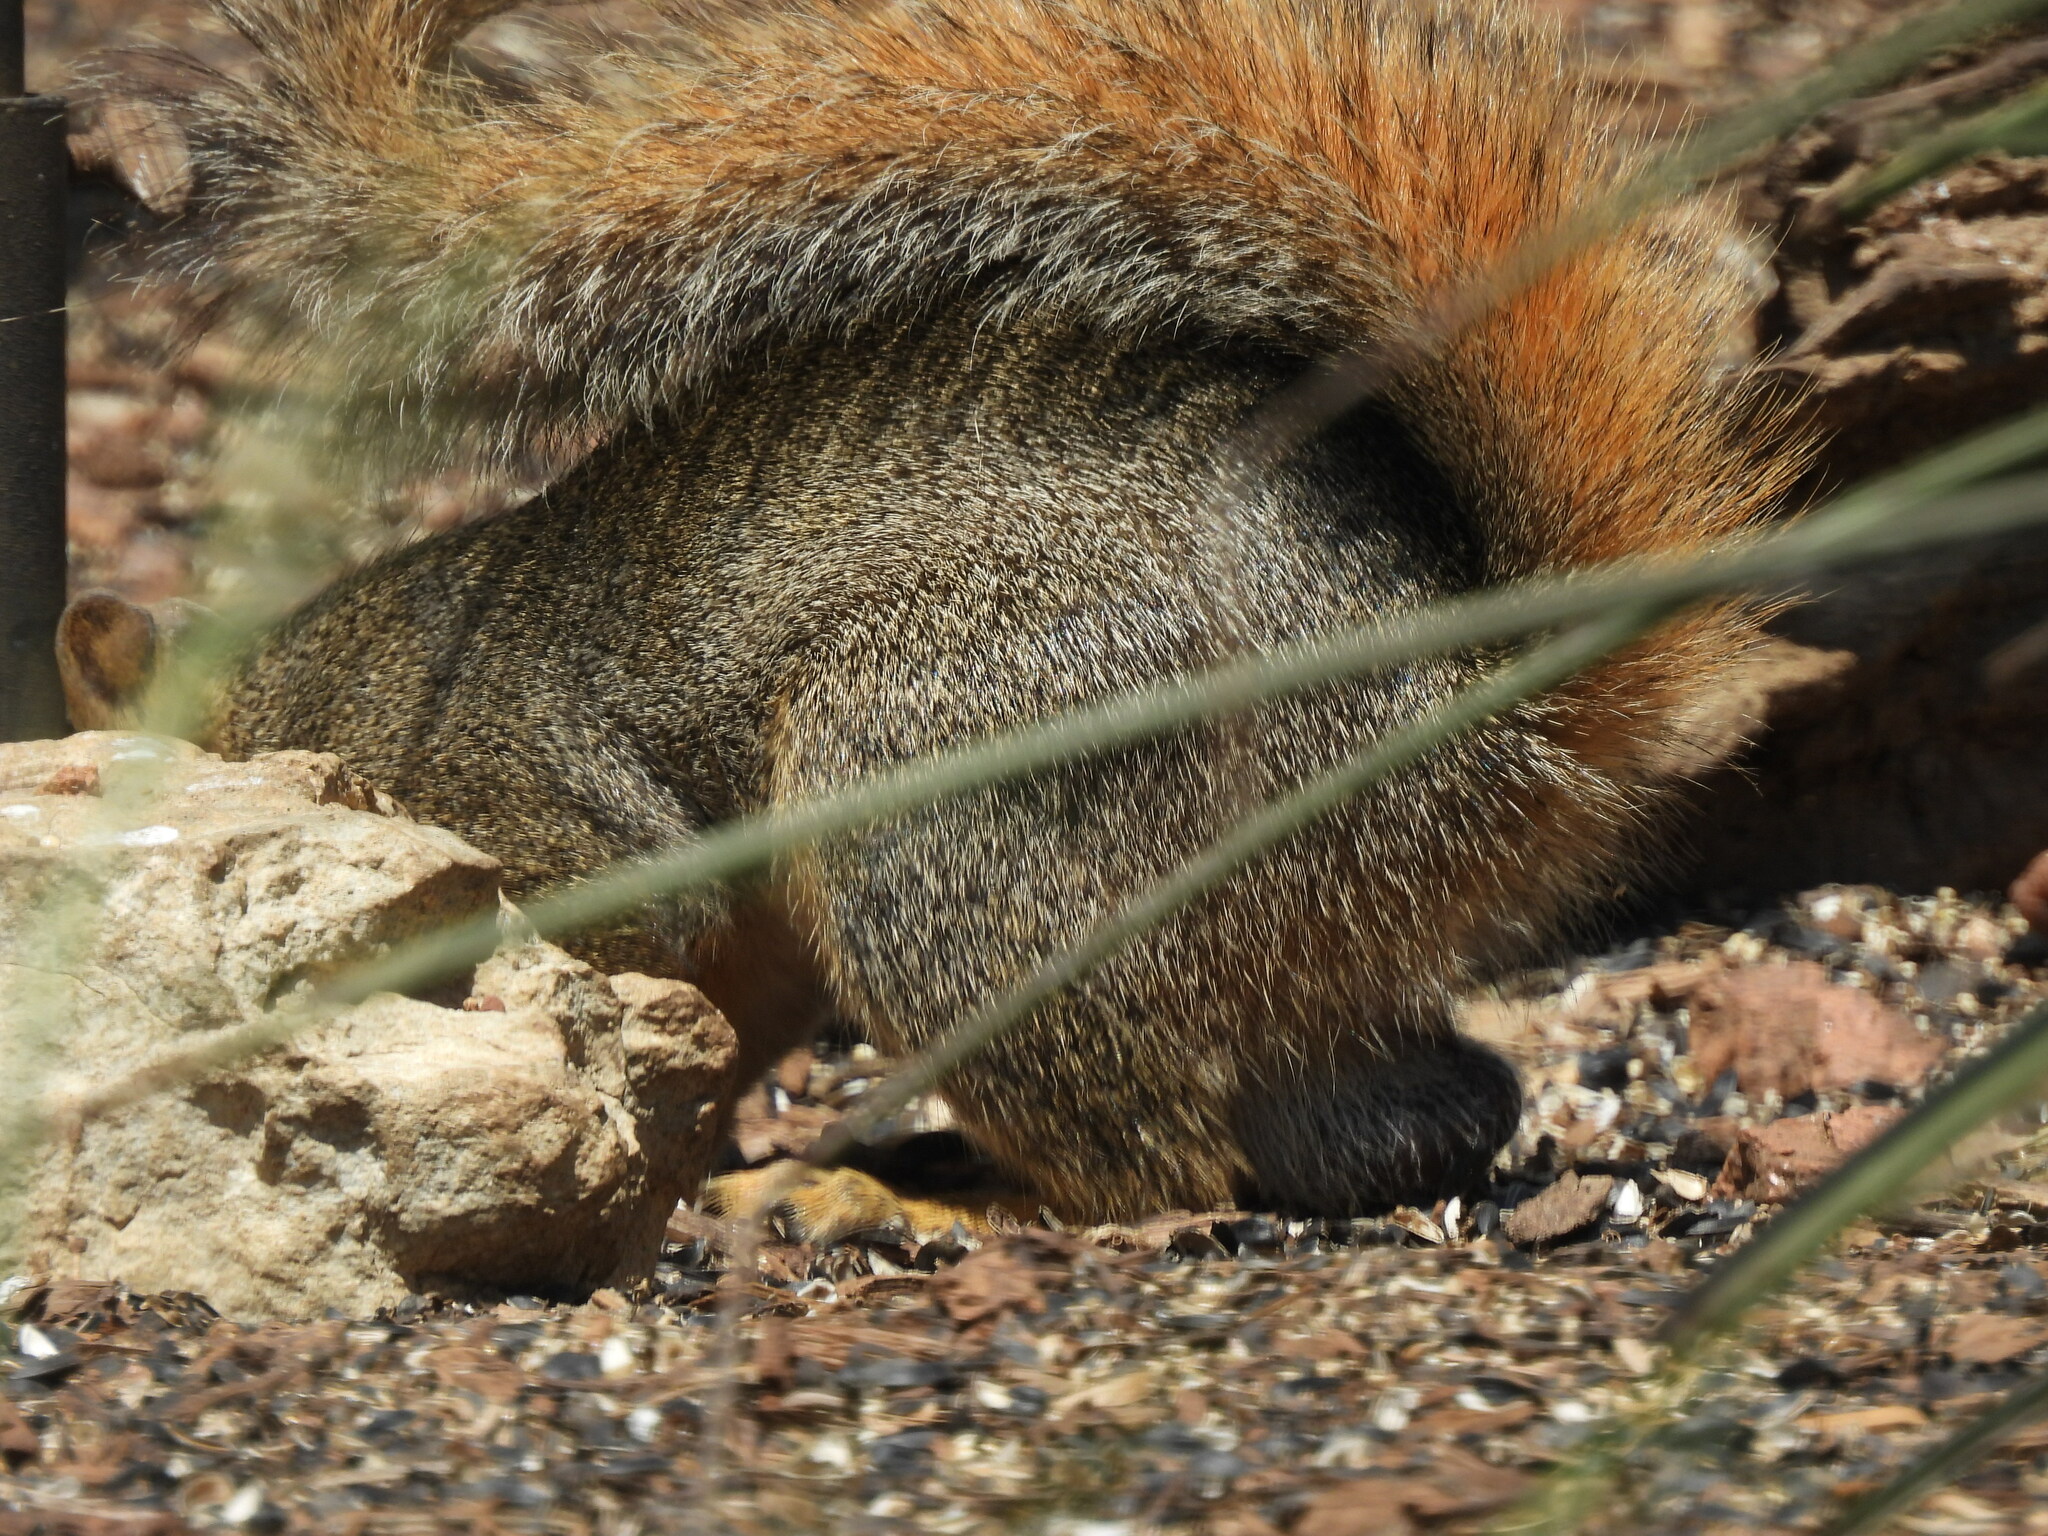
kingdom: Animalia
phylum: Chordata
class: Mammalia
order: Rodentia
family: Sciuridae
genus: Sciurus
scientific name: Sciurus niger
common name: Fox squirrel
